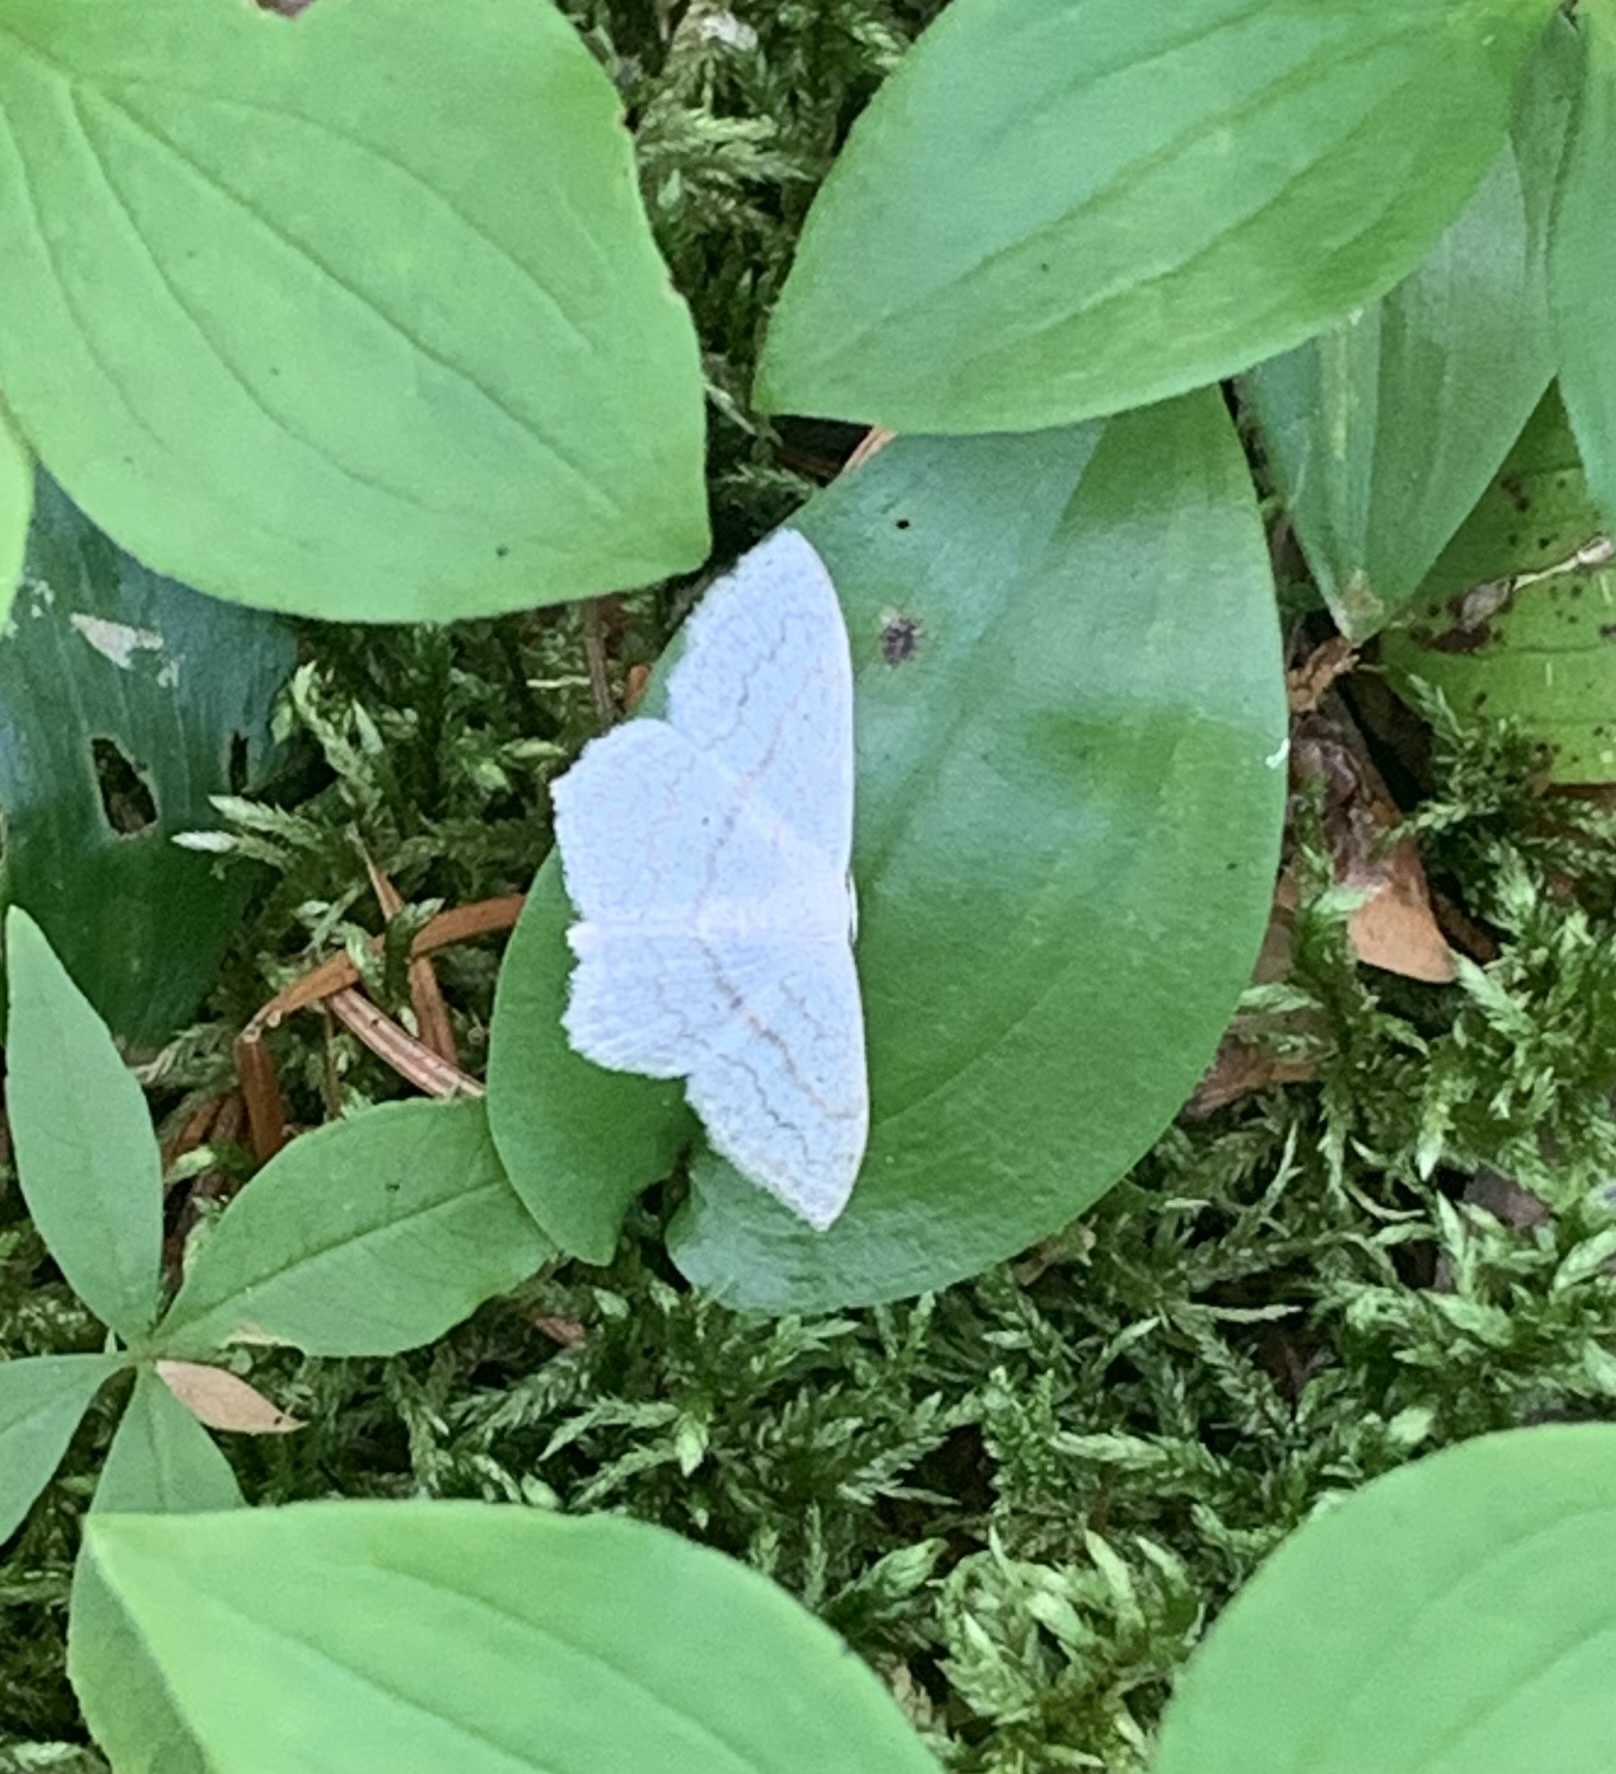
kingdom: Animalia
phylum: Arthropoda
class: Insecta
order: Lepidoptera
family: Geometridae
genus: Scopula
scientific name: Scopula limboundata
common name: Large lace border
